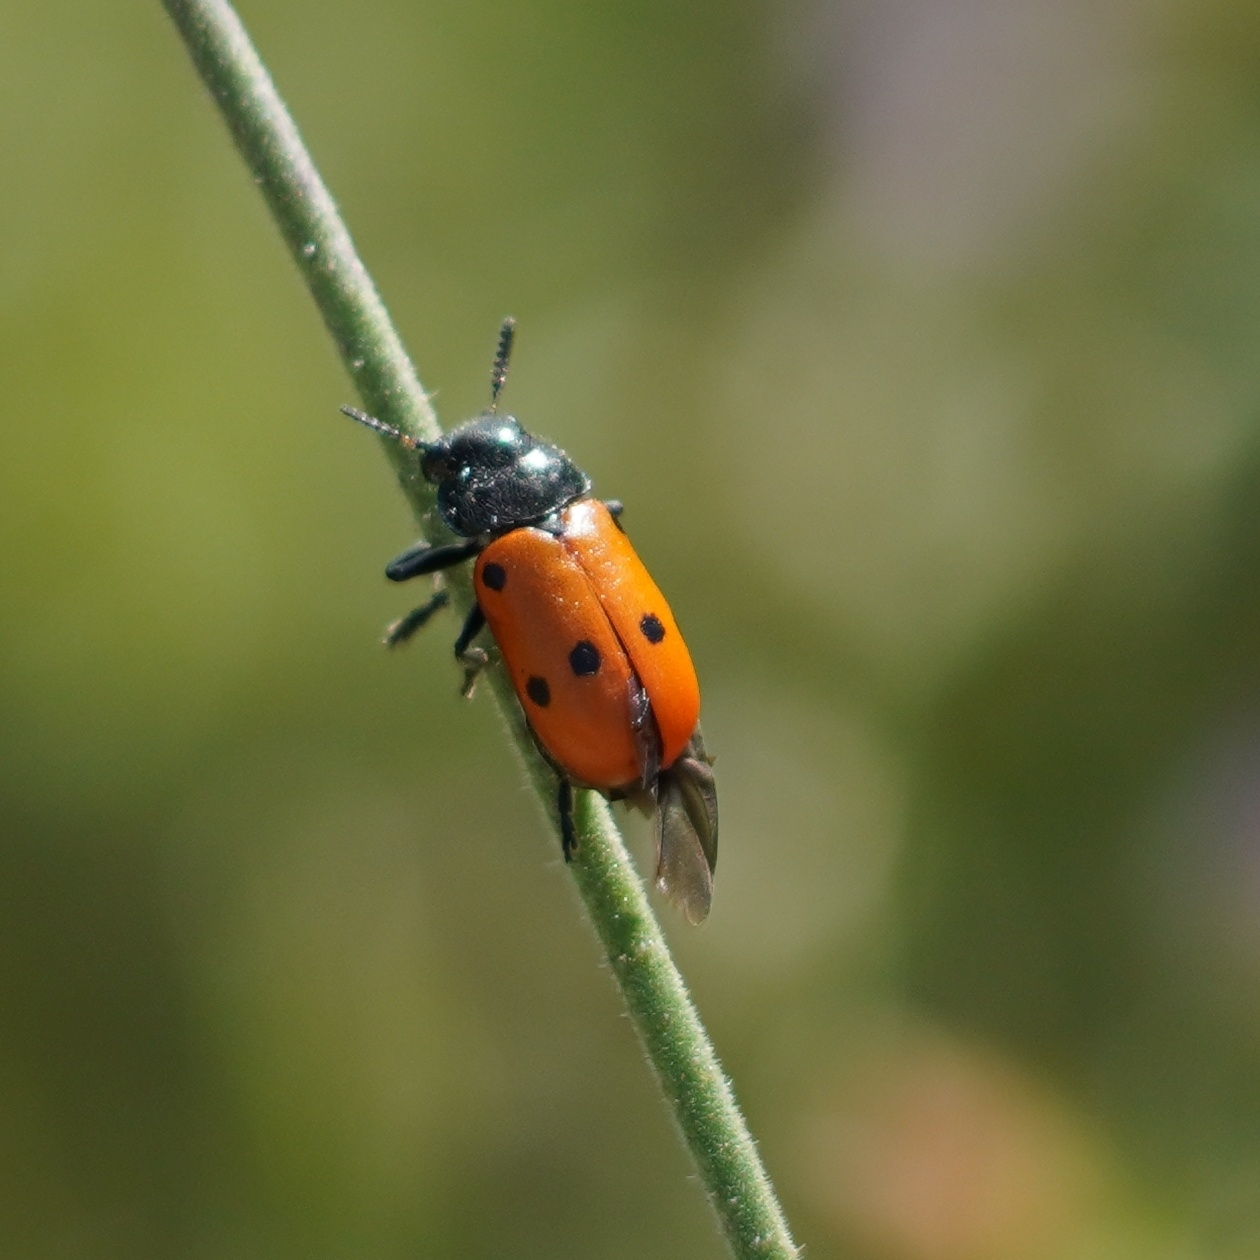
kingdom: Animalia
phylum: Arthropoda
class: Insecta
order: Coleoptera
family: Chrysomelidae
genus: Lachnaia
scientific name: Lachnaia paradoxa
